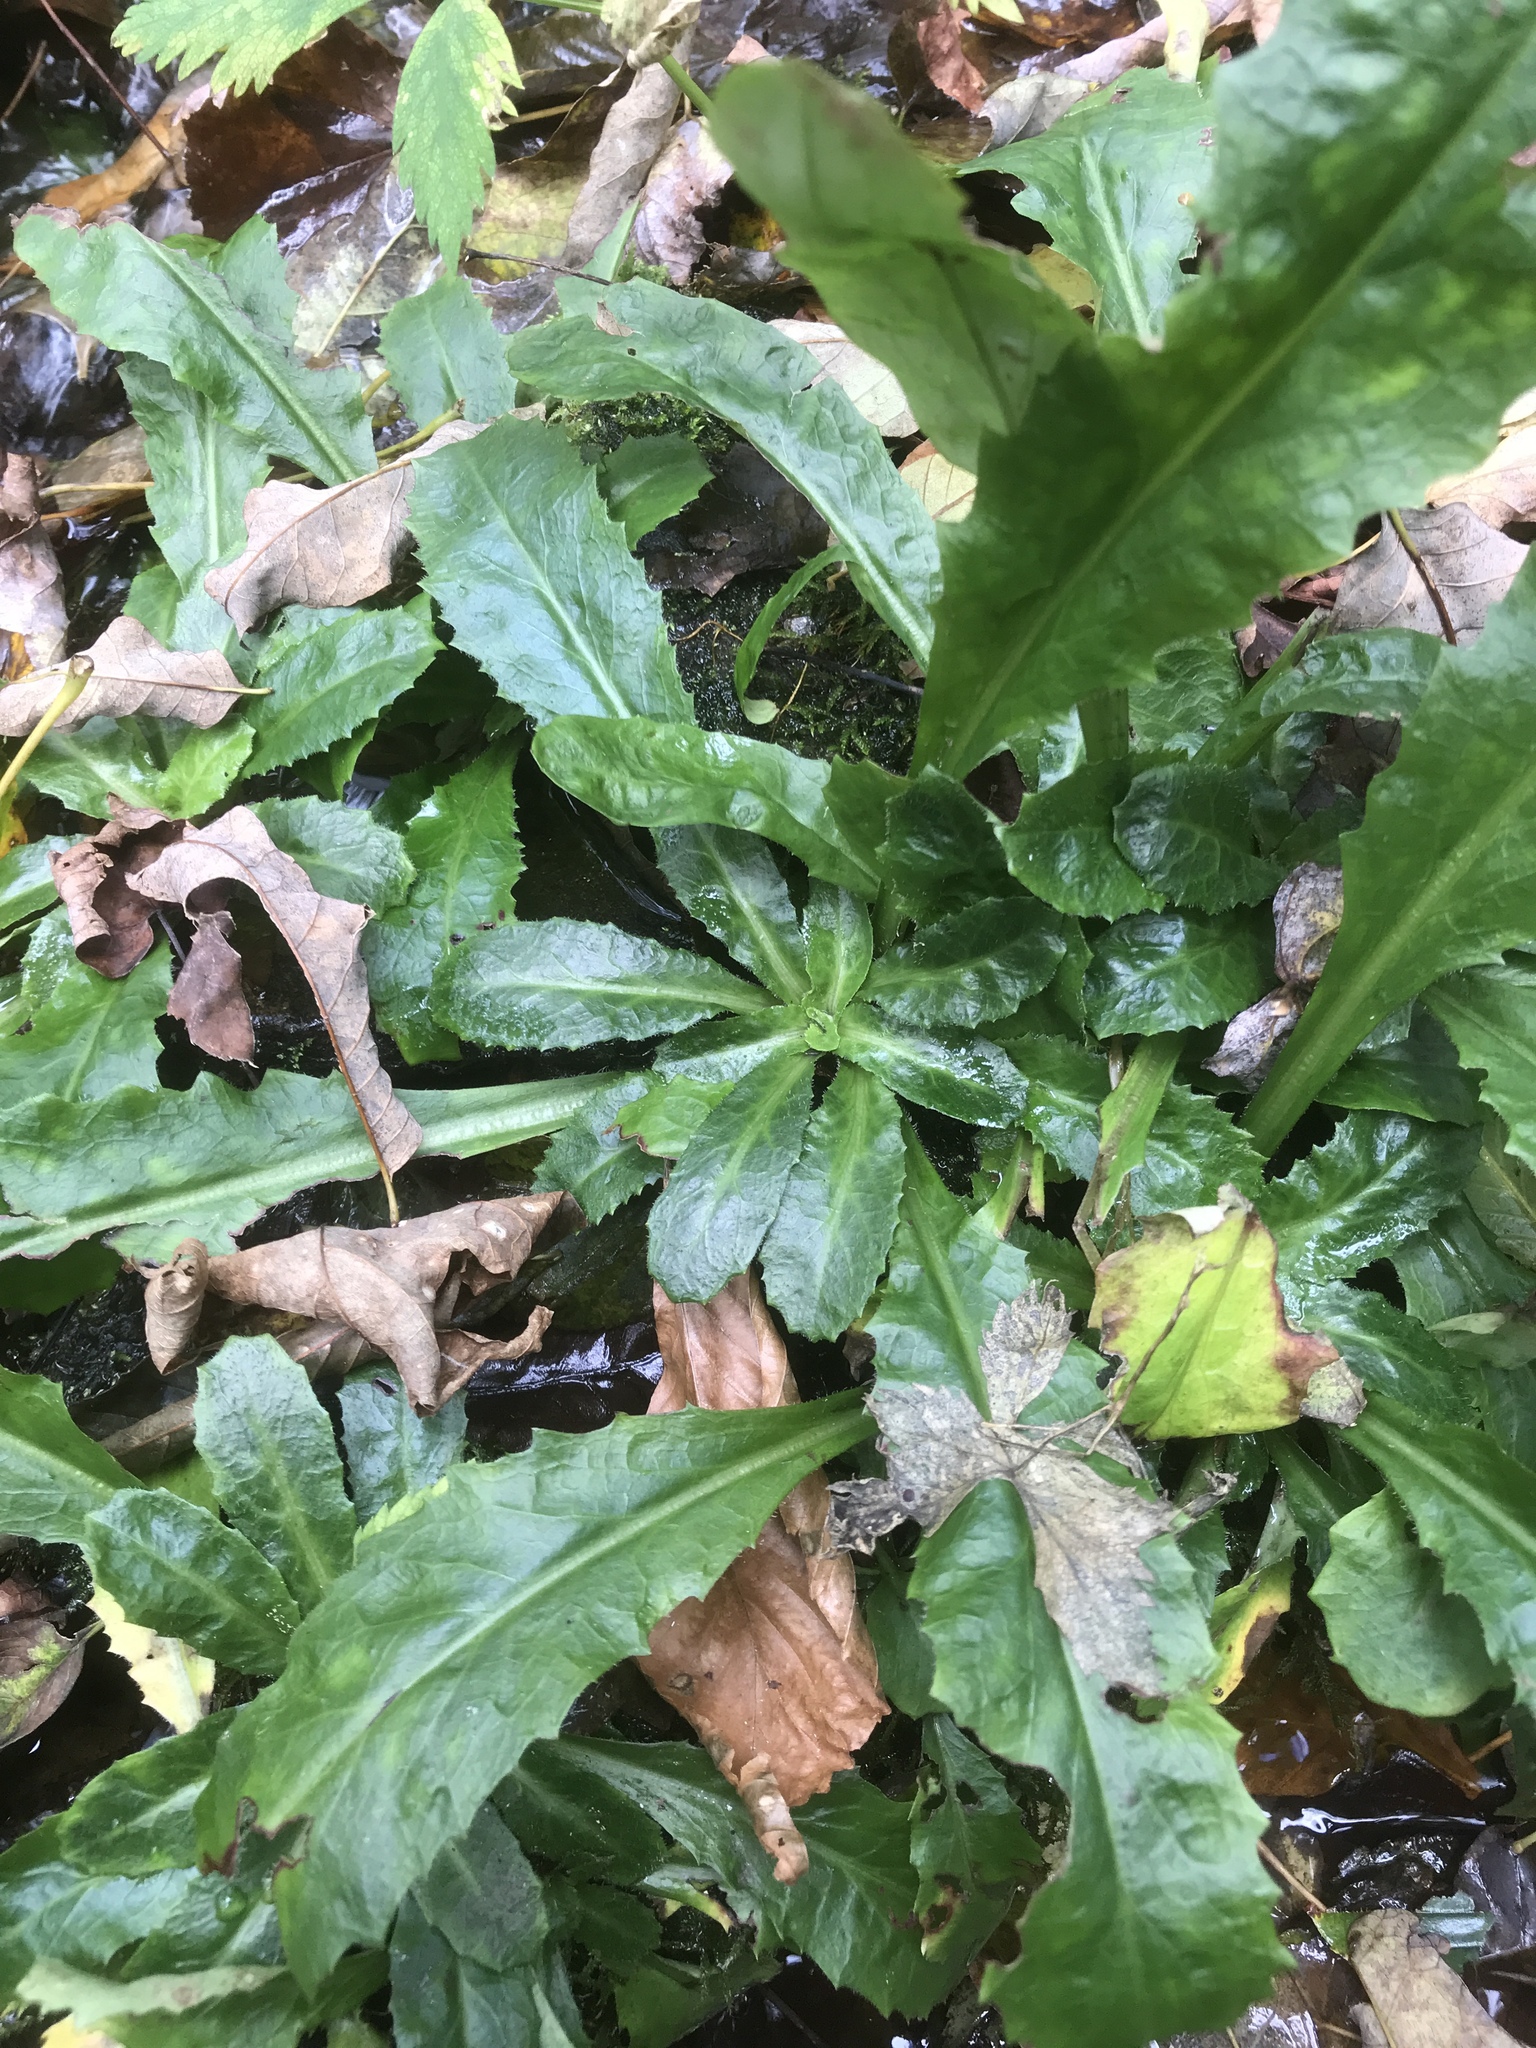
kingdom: Plantae
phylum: Tracheophyta
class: Magnoliopsida
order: Saxifragales
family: Saxifragaceae
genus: Micranthes
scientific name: Micranthes micranthidifolia
